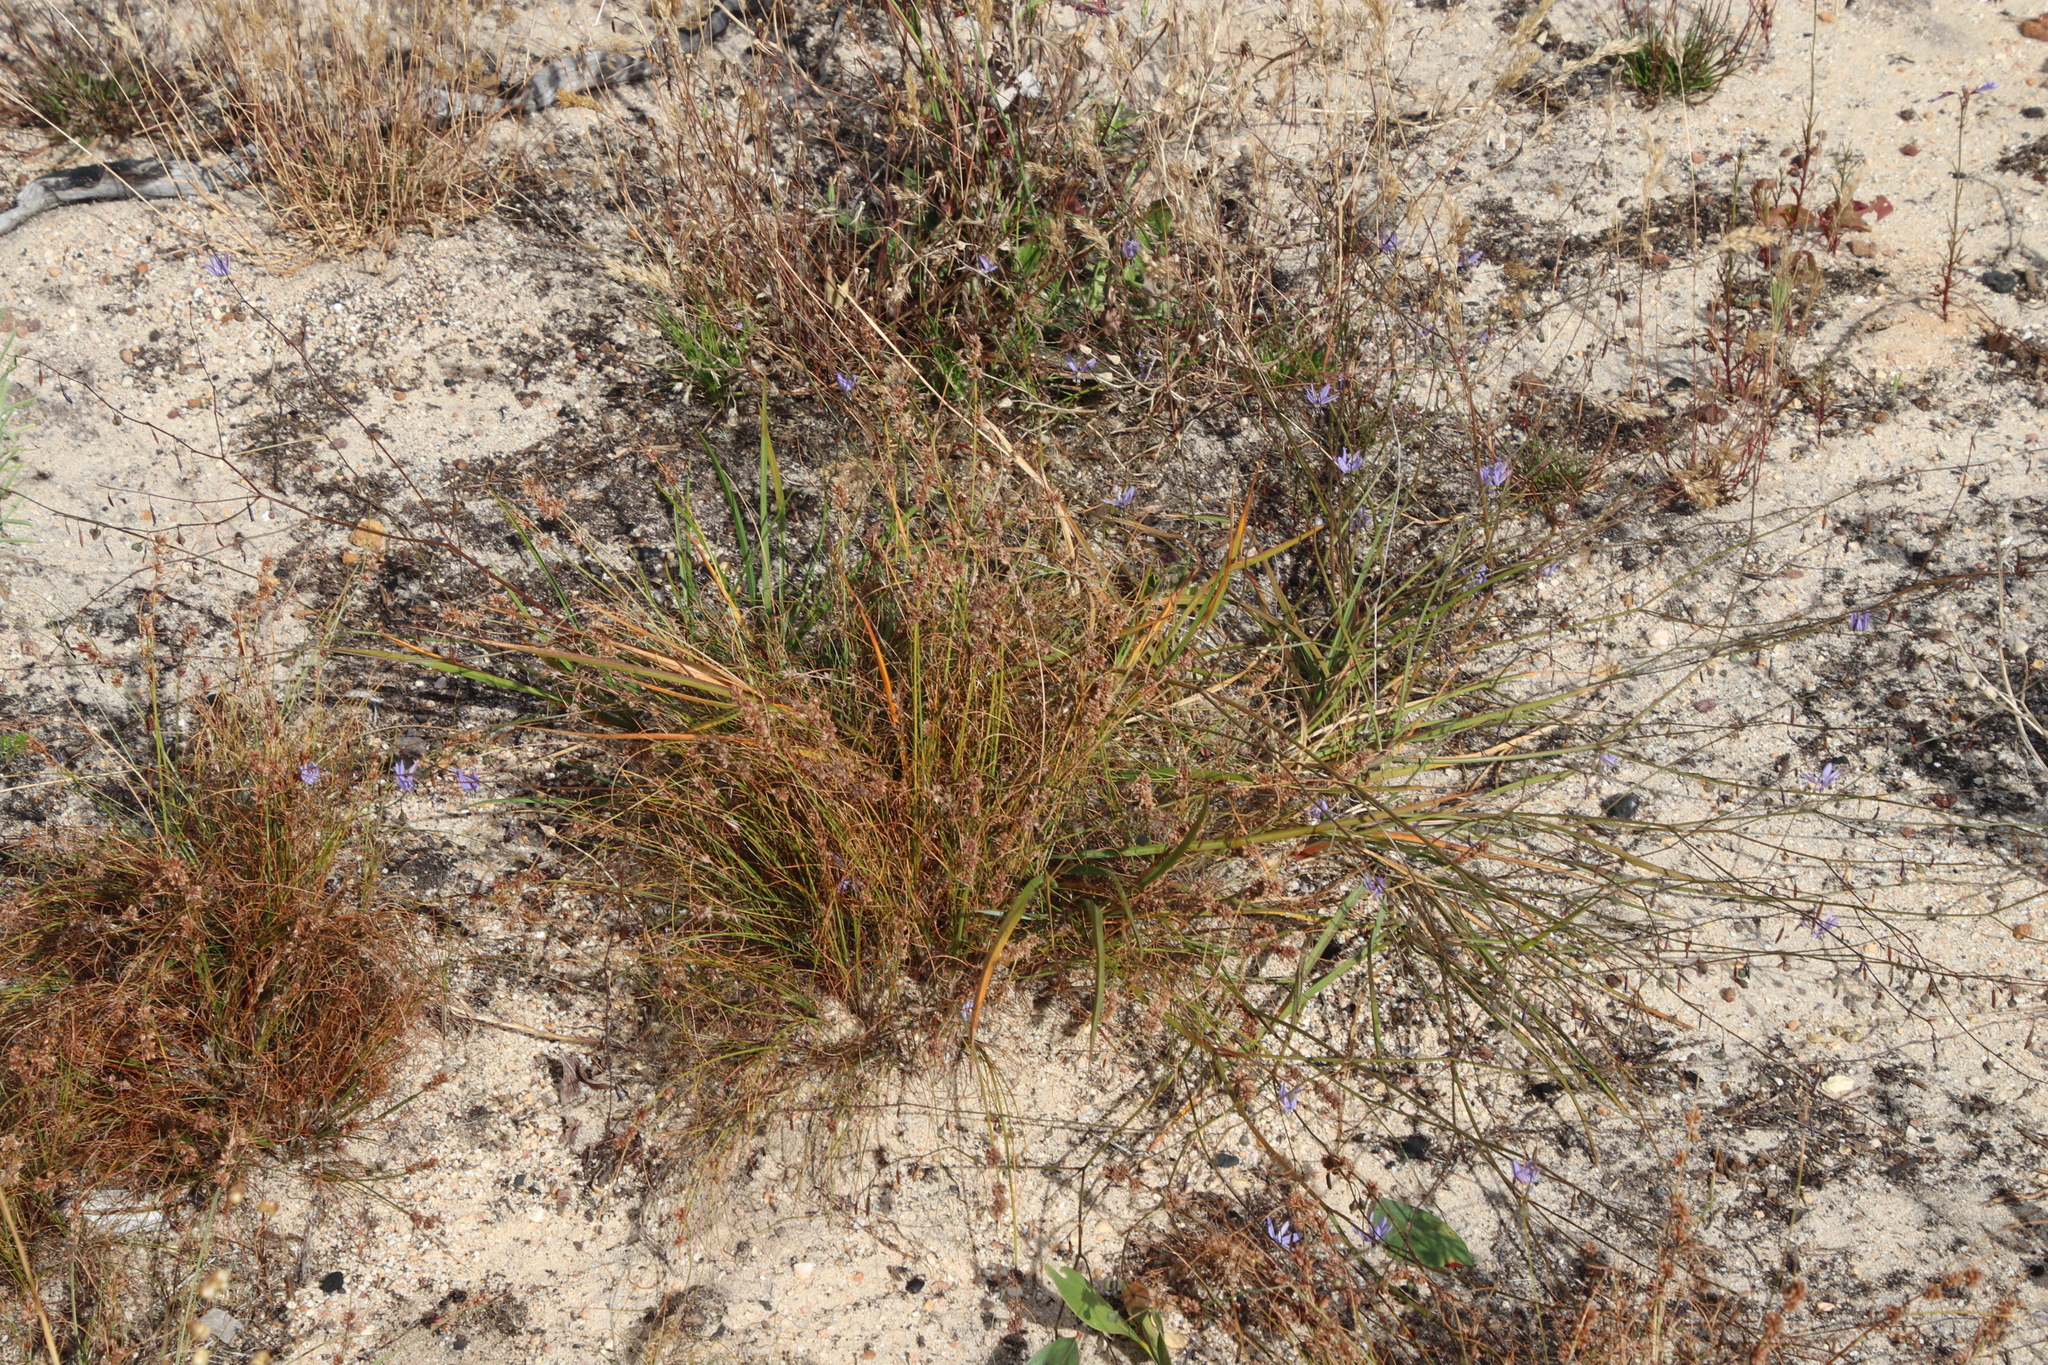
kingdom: Plantae
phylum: Tracheophyta
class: Liliopsida
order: Asparagales
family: Asphodelaceae
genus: Caesia
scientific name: Caesia contorta
